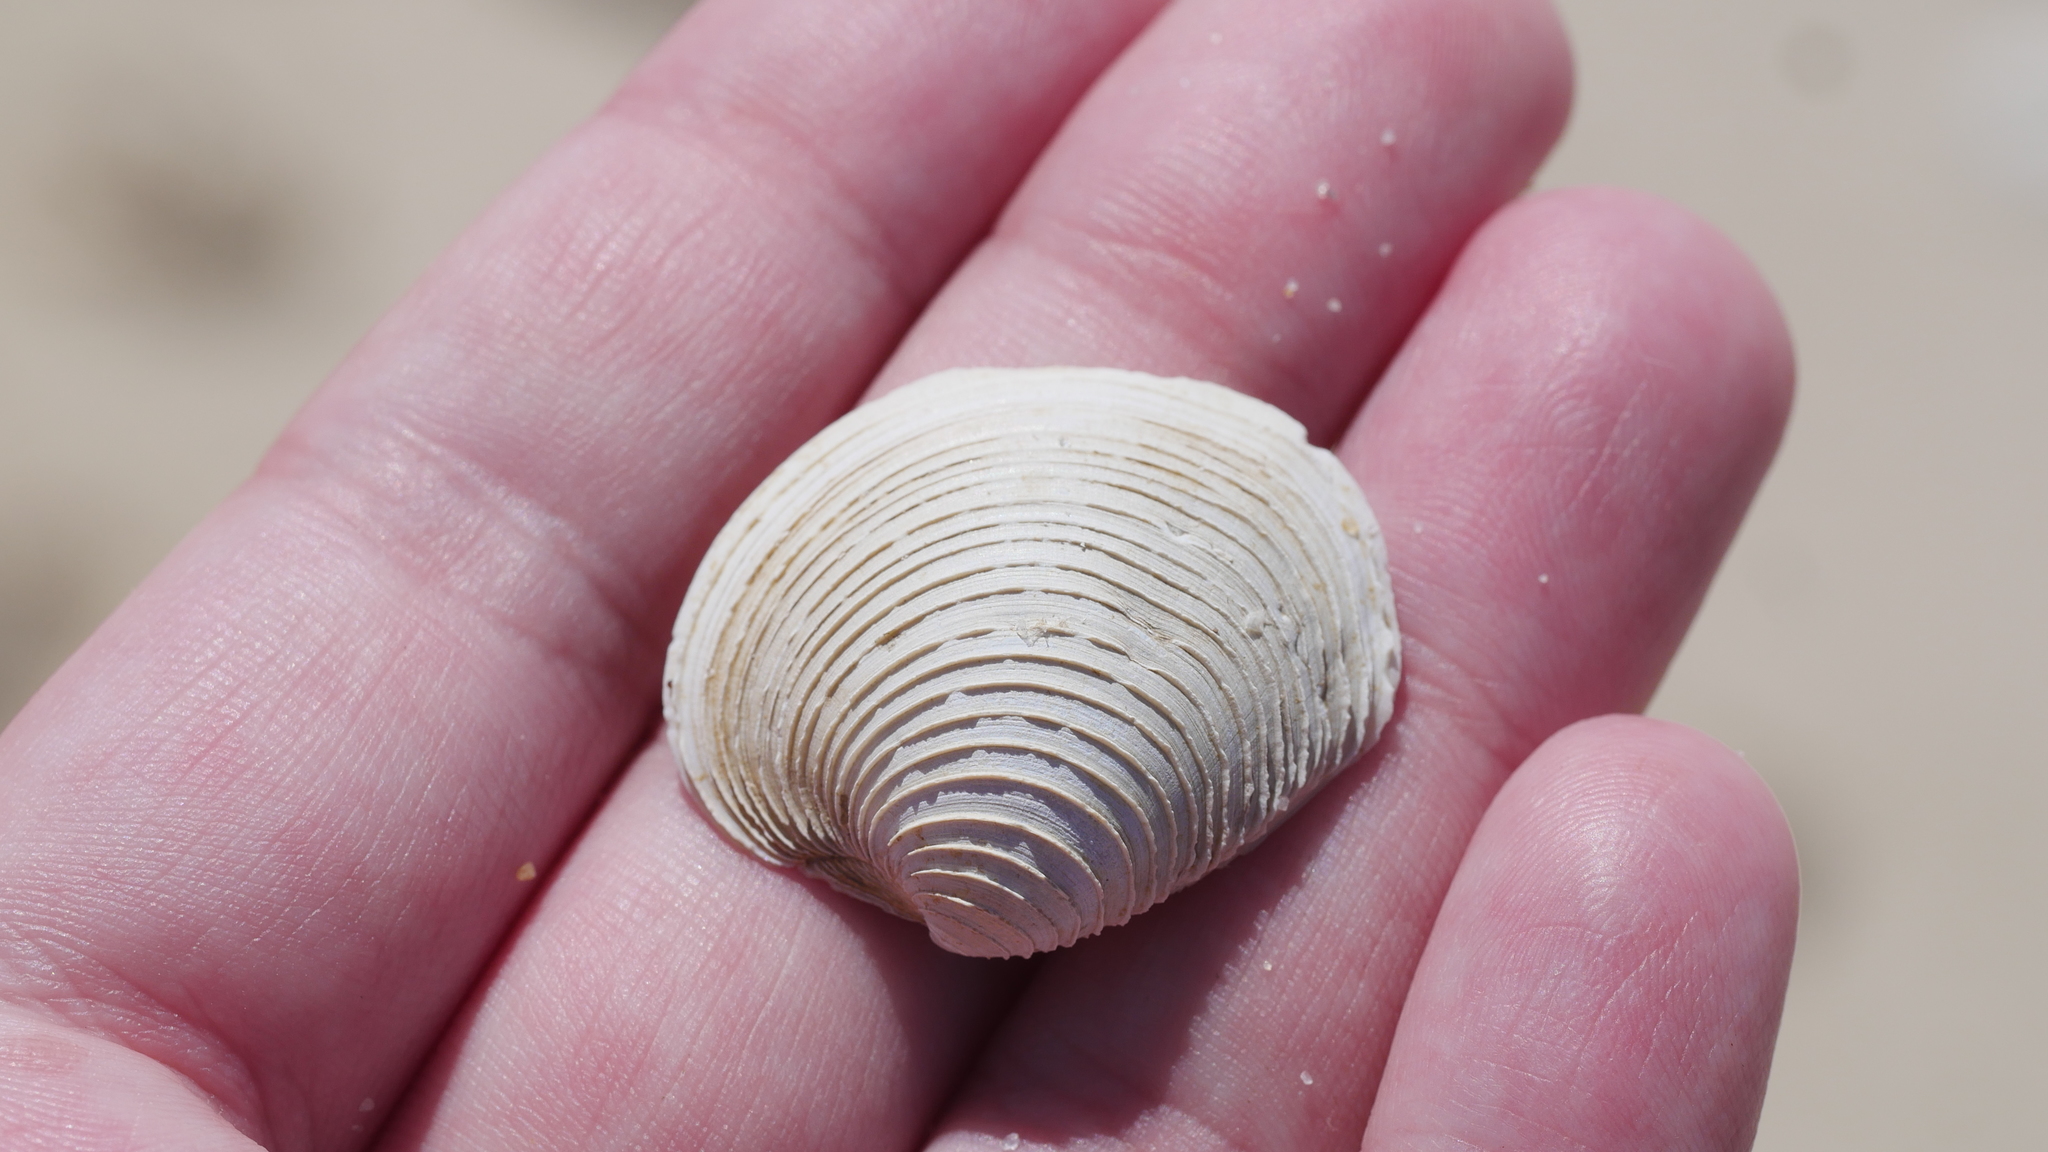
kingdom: Animalia
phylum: Mollusca
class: Bivalvia
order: Venerida
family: Veneridae
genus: Mercenaria
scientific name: Mercenaria mercenaria
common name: American hard-shelled clam
